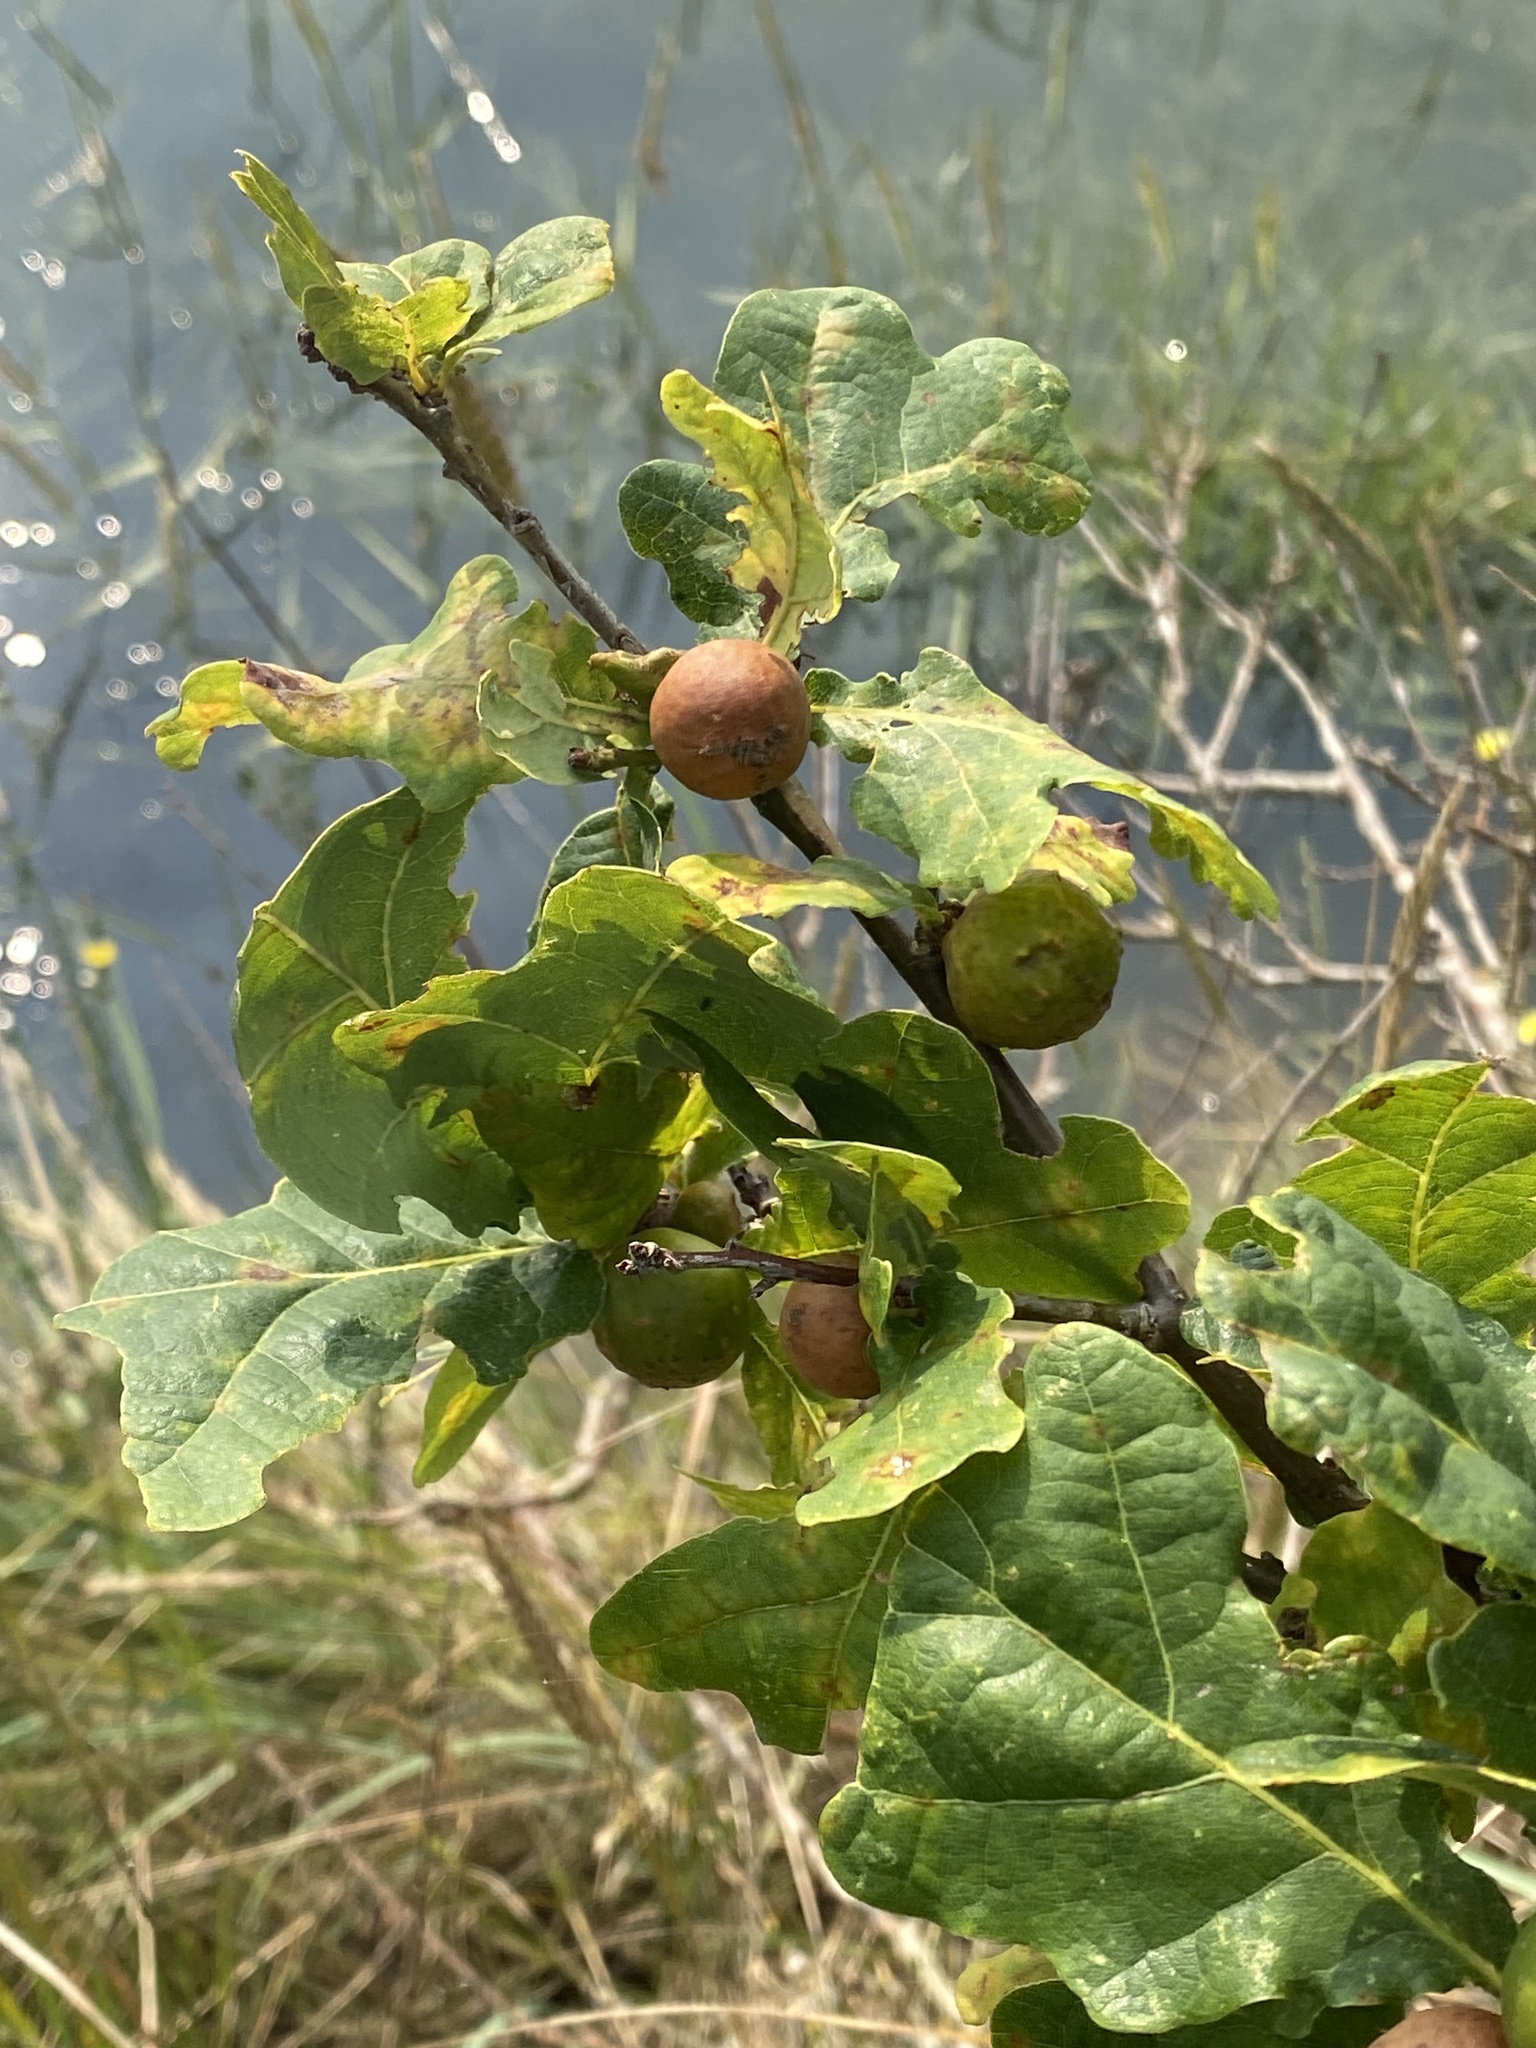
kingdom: Animalia
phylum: Arthropoda
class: Insecta
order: Hymenoptera
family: Cynipidae
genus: Andricus
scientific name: Andricus kollari
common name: Marble gall
